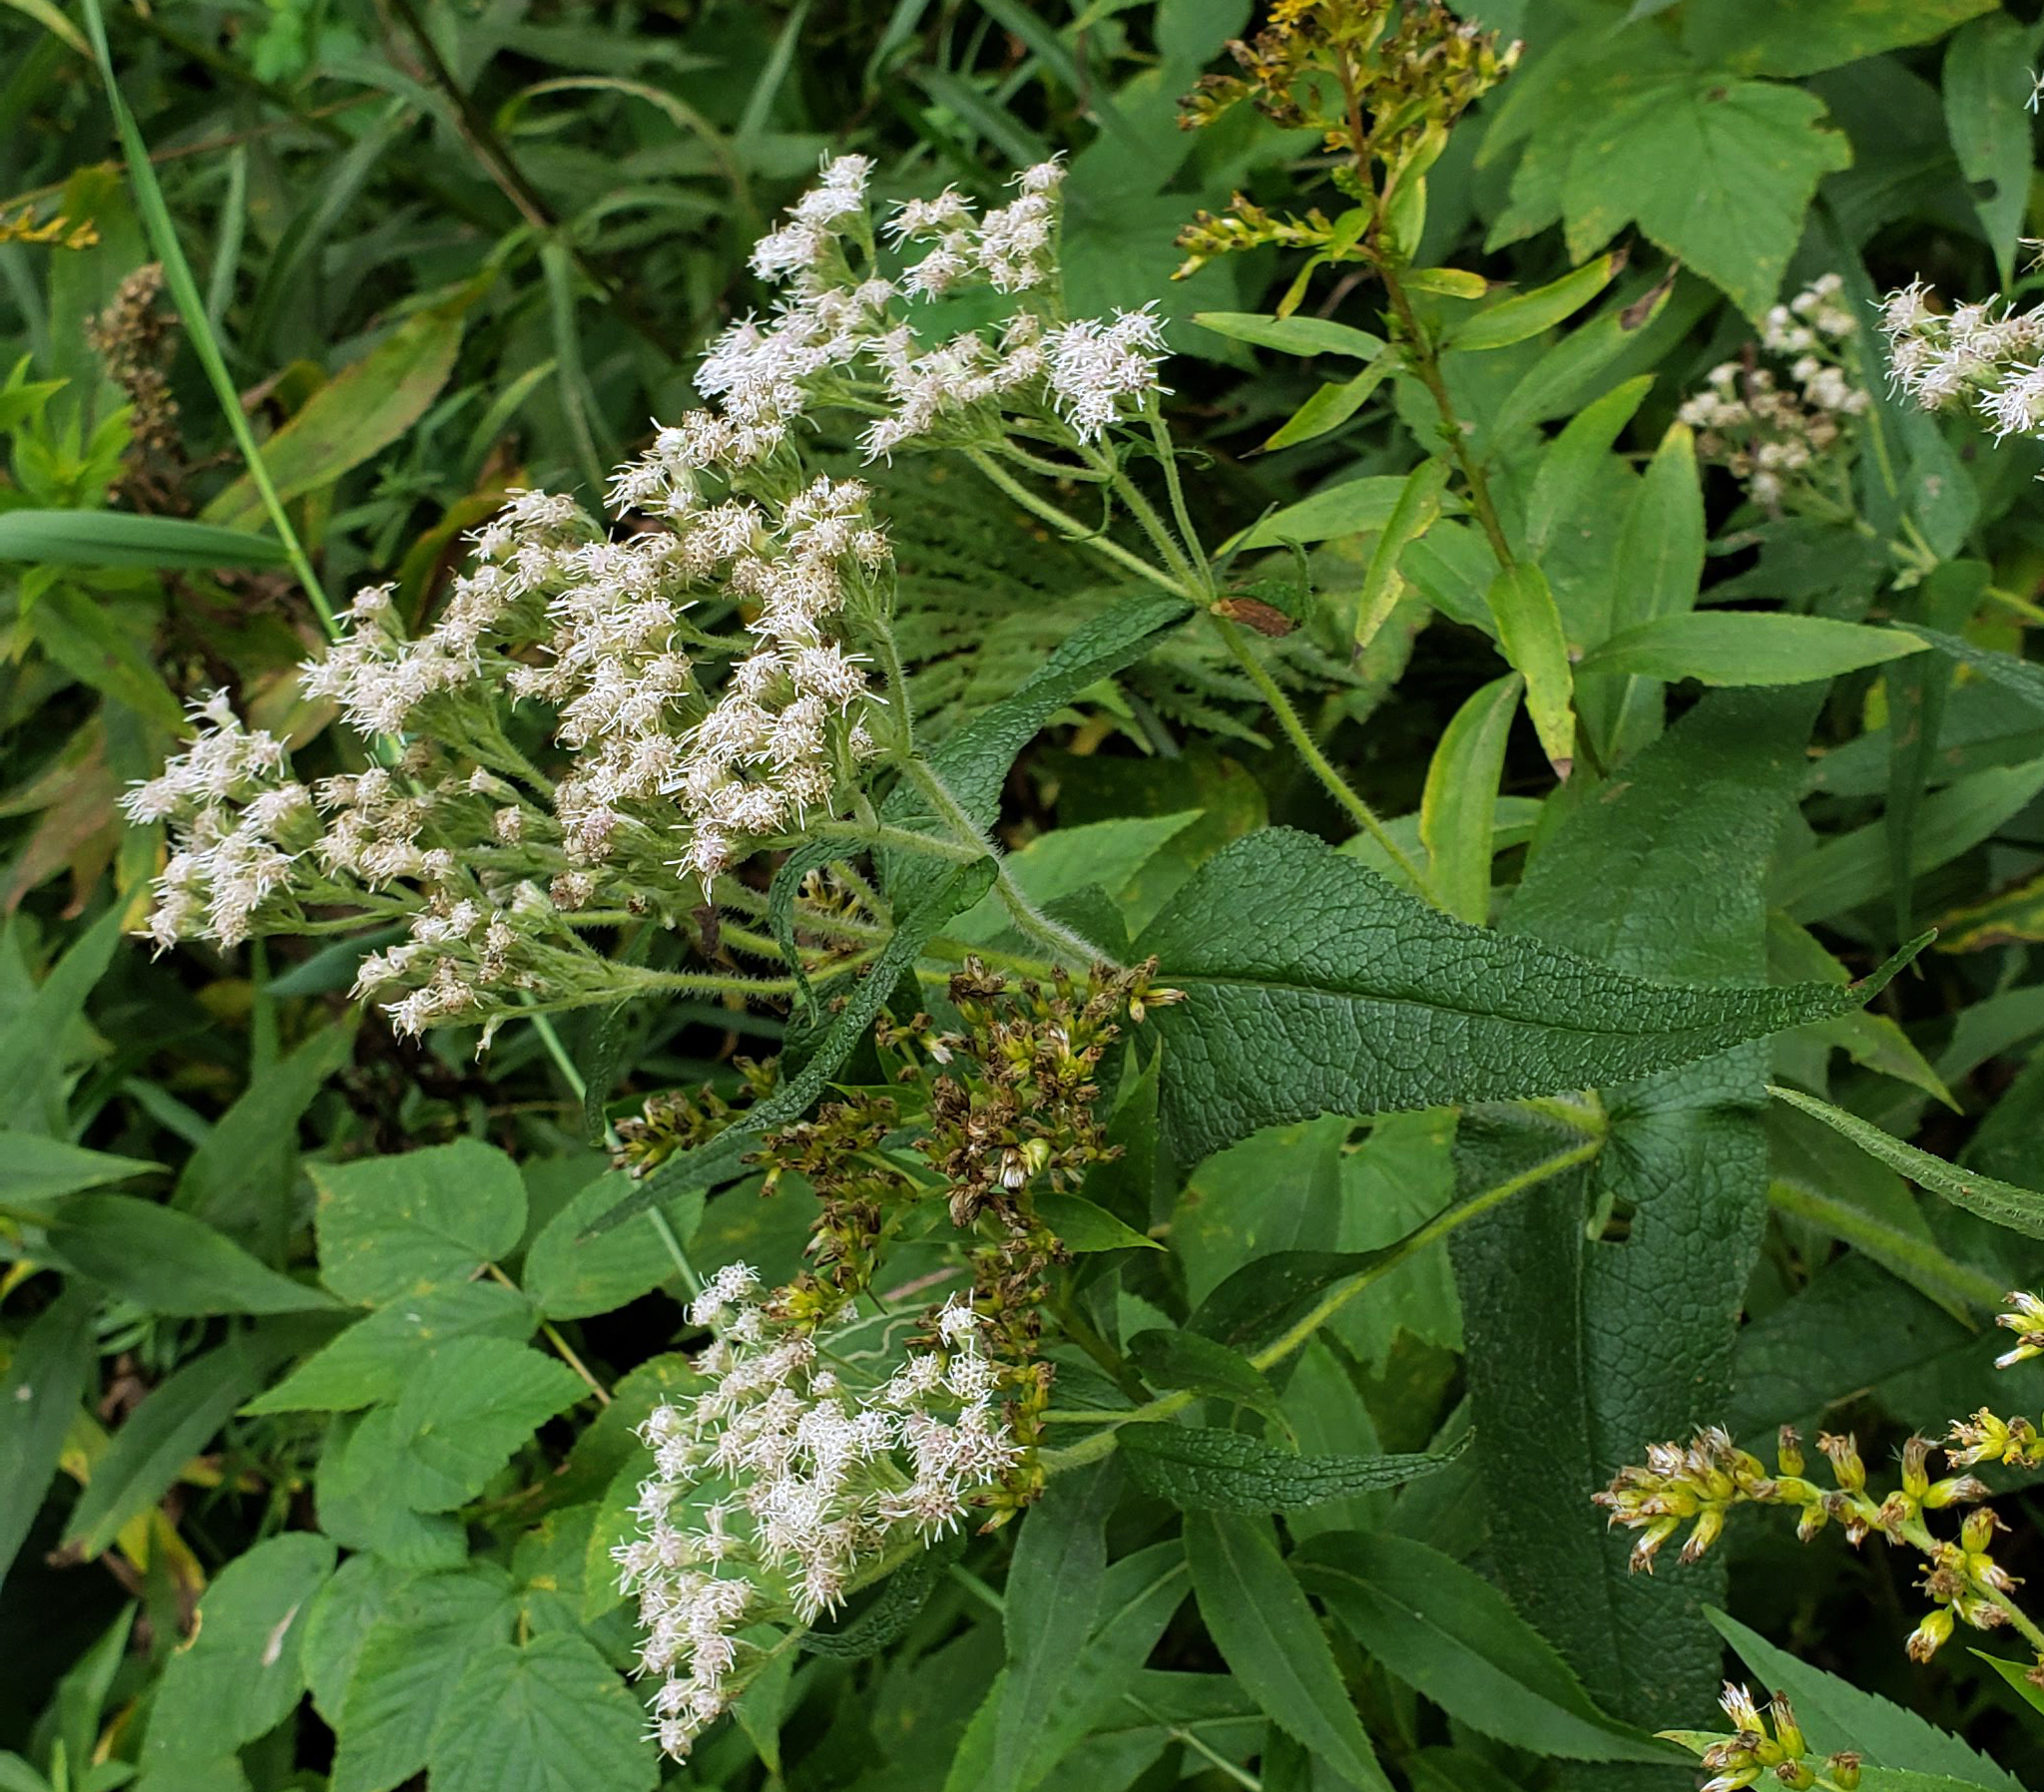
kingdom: Plantae
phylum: Tracheophyta
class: Magnoliopsida
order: Asterales
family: Asteraceae
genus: Eupatorium
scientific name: Eupatorium perfoliatum
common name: Boneset
